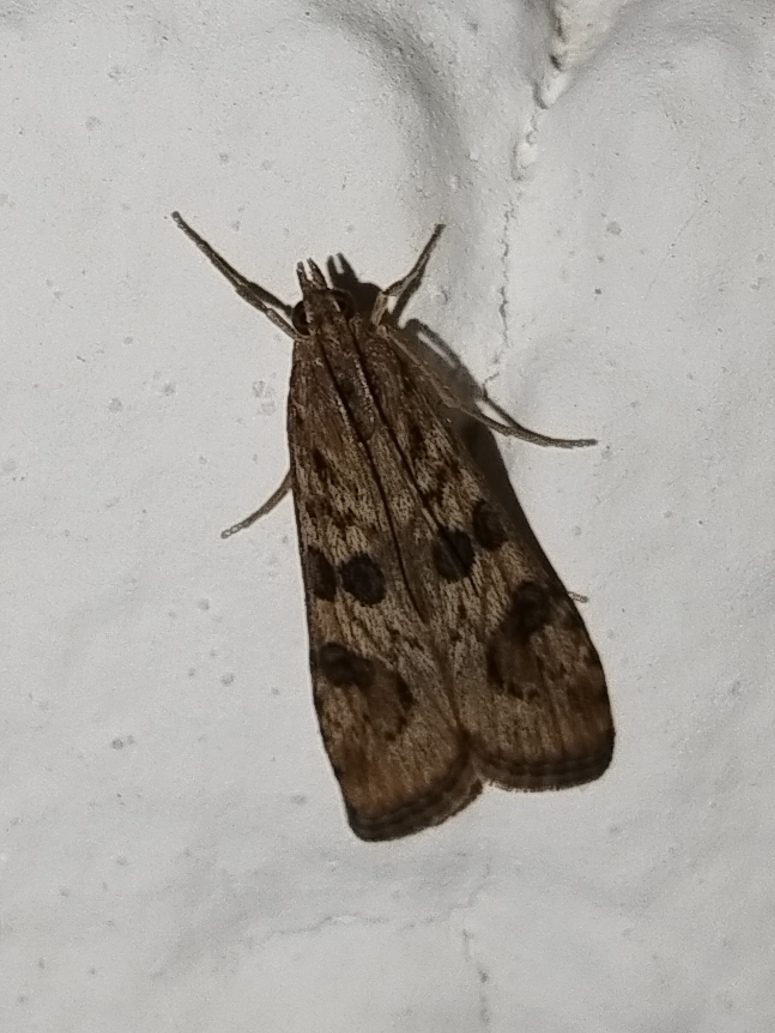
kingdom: Animalia
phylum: Arthropoda
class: Insecta
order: Lepidoptera
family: Crambidae
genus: Nomophila
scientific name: Nomophila noctuella
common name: Rush veneer
